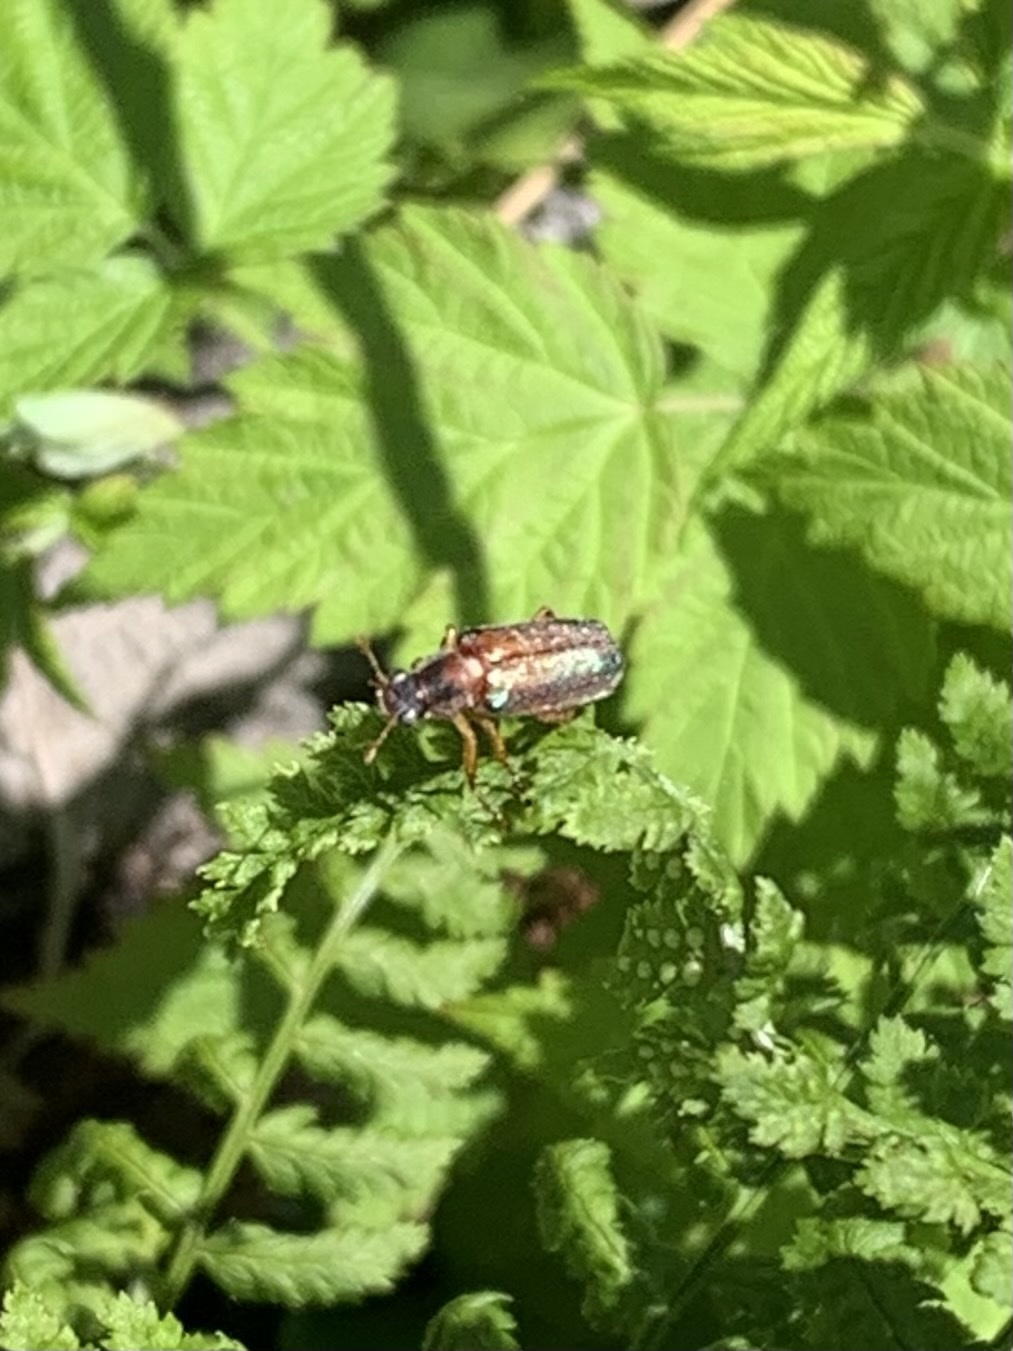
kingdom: Animalia
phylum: Arthropoda
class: Insecta
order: Coleoptera
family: Scarabaeidae
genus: Dichelonyx
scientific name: Dichelonyx subvittata
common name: Bronzed chafer
